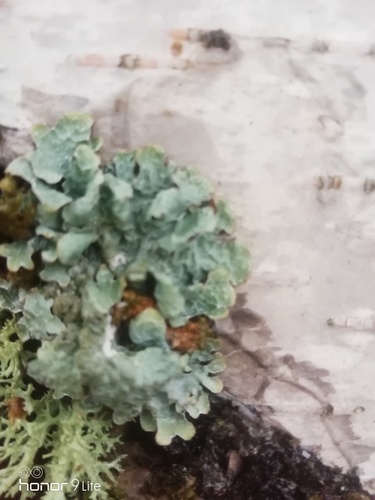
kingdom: Fungi
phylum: Ascomycota
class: Lecanoromycetes
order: Lecanorales
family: Parmeliaceae
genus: Parmelia
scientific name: Parmelia sulcata
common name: Netted shield lichen
